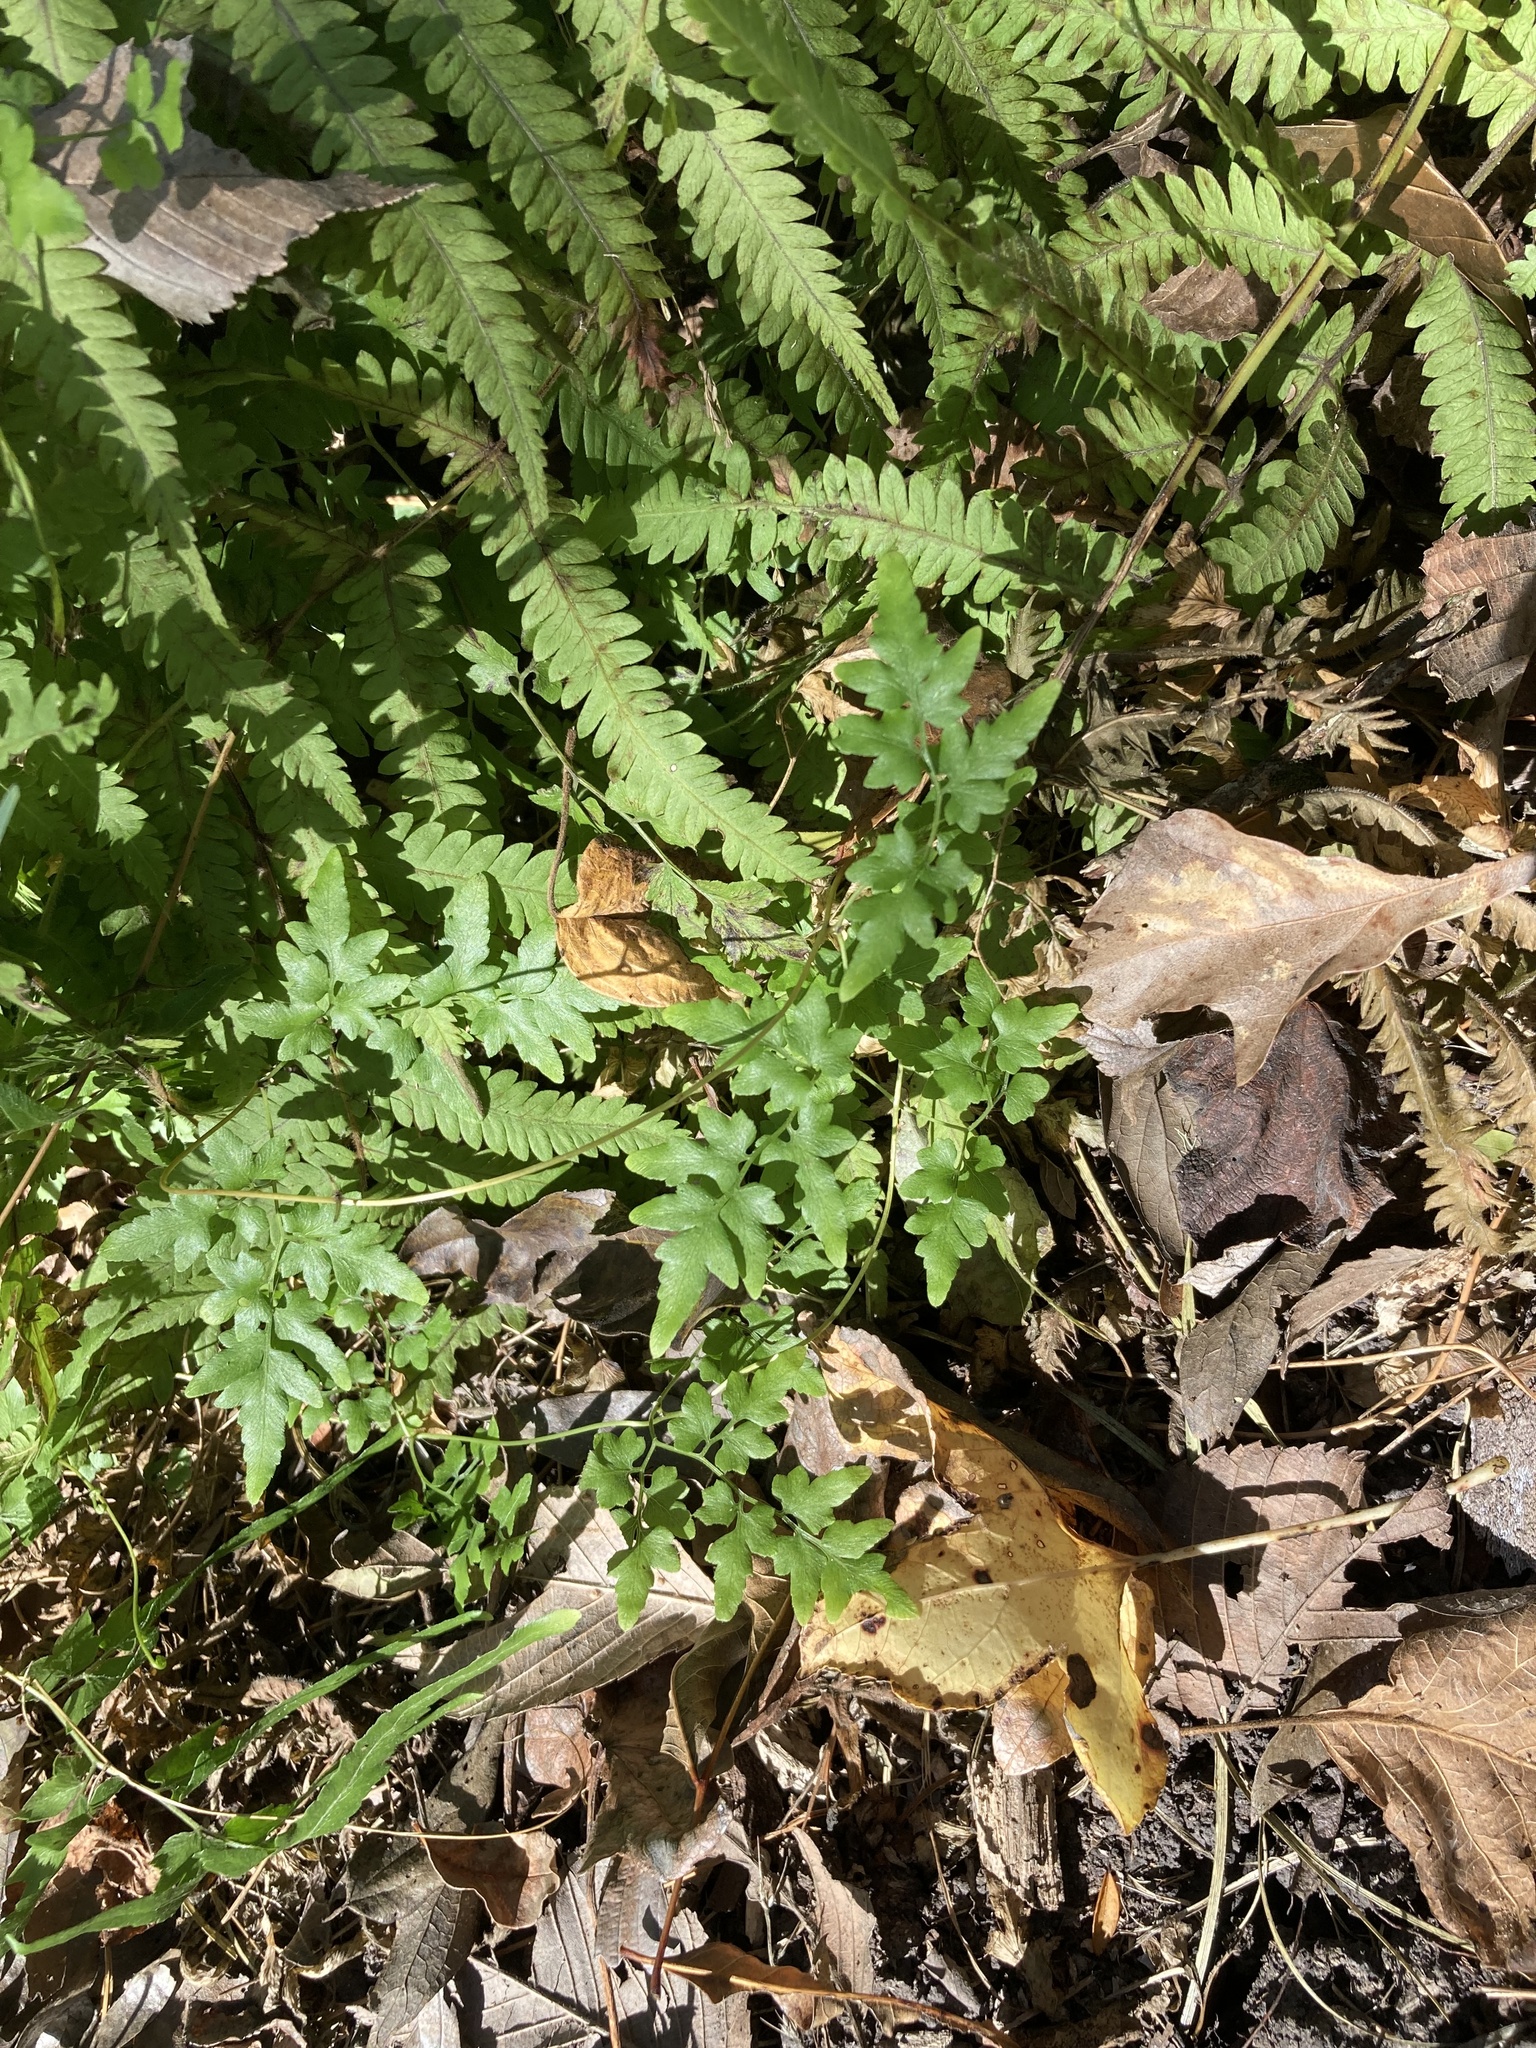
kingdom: Plantae
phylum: Tracheophyta
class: Polypodiopsida
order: Schizaeales
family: Lygodiaceae
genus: Lygodium
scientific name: Lygodium japonicum
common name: Japanese climbing fern
